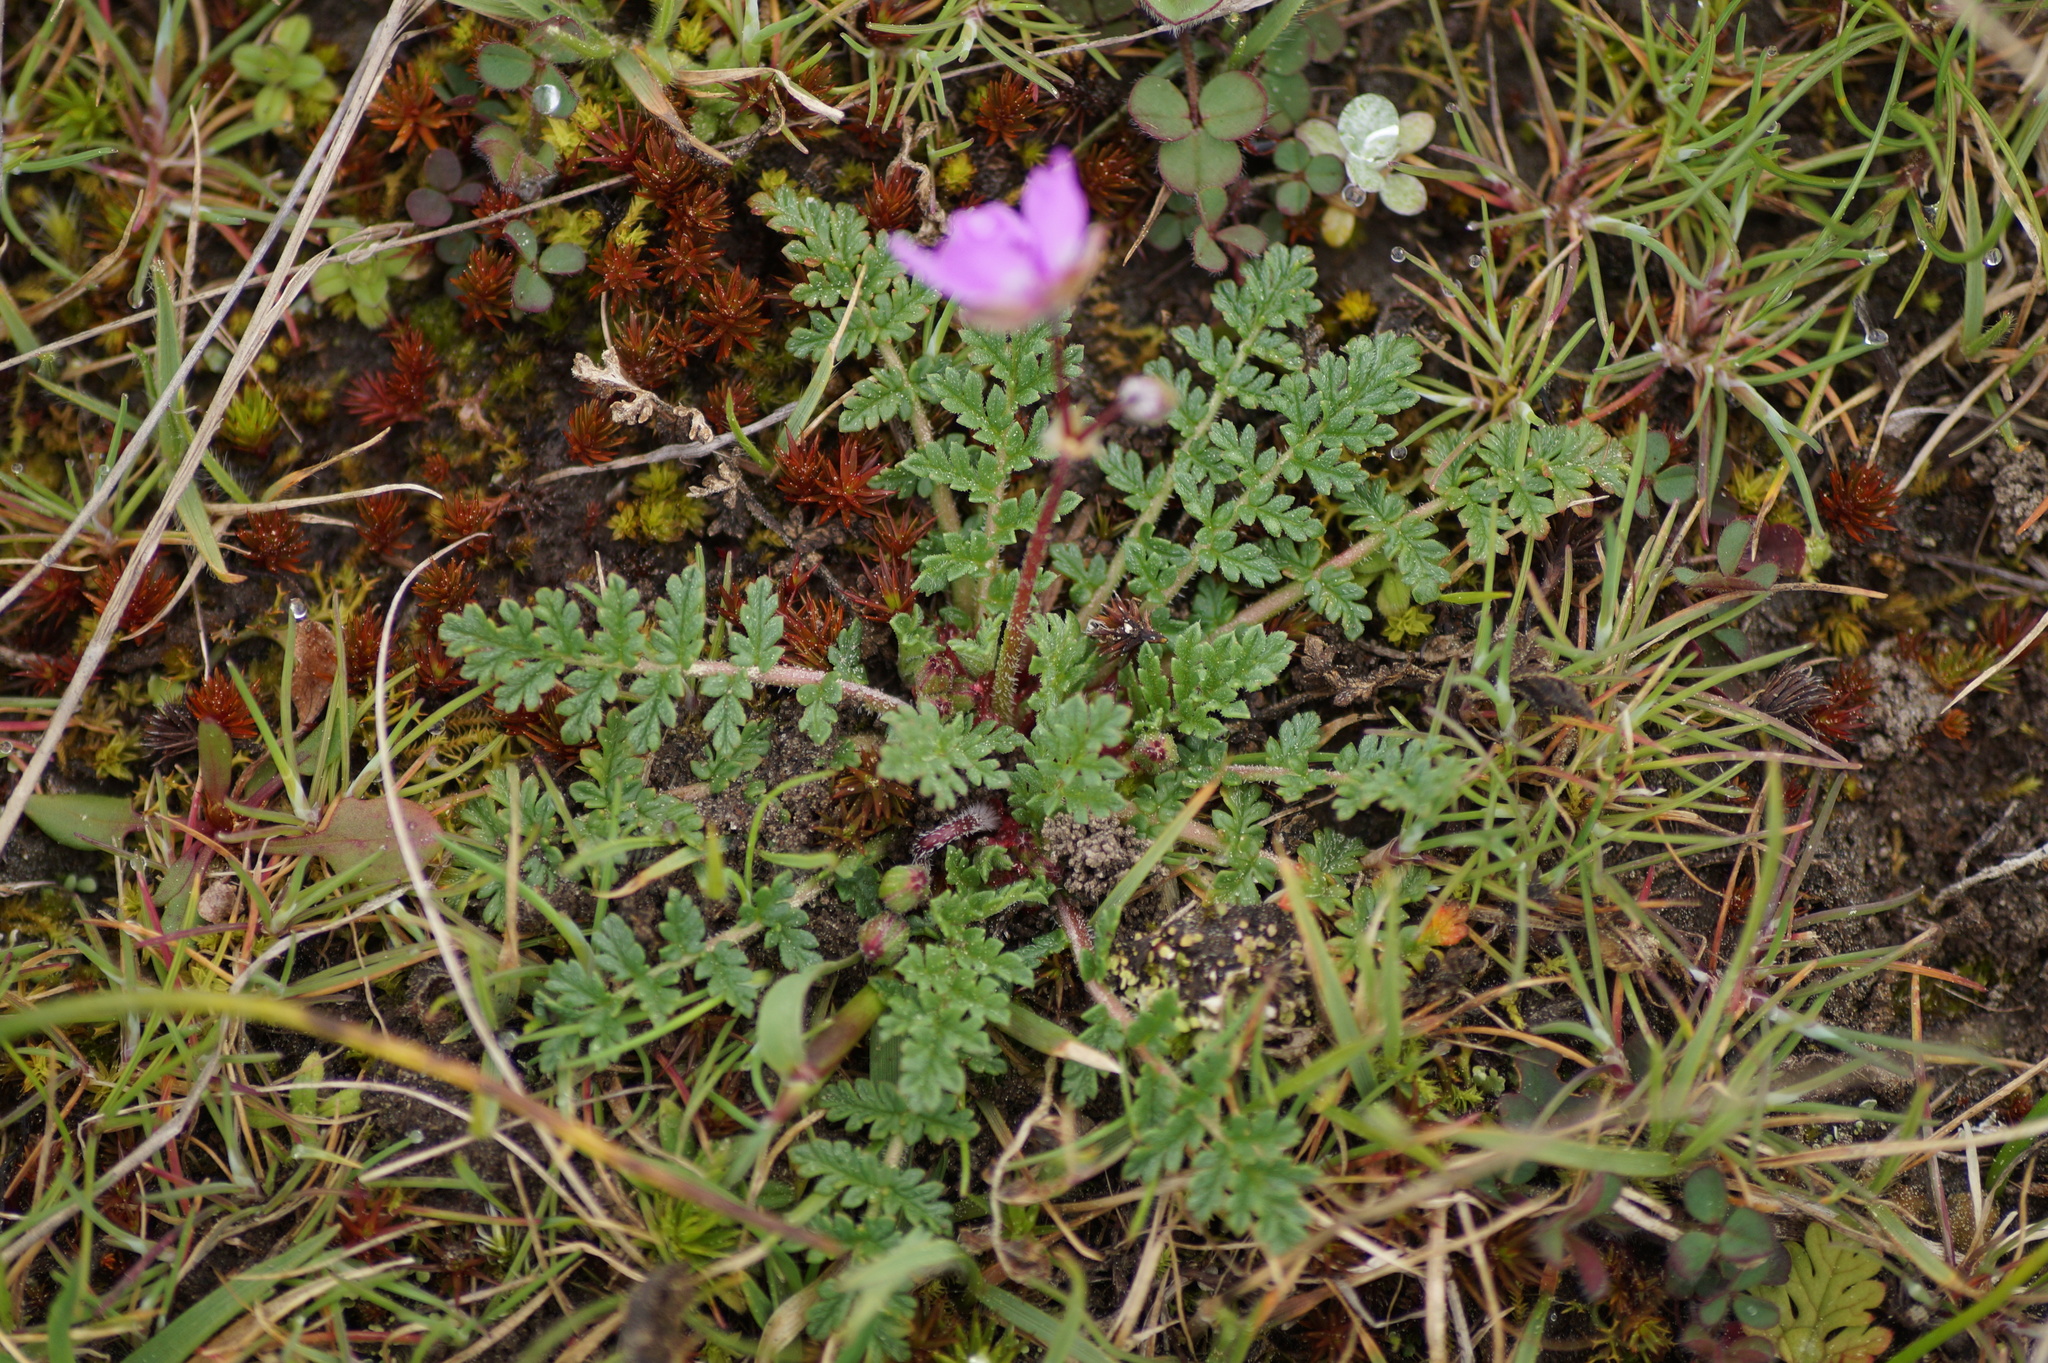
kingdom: Plantae
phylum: Tracheophyta
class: Magnoliopsida
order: Geraniales
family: Geraniaceae
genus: Erodium
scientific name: Erodium cicutarium
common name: Common stork's-bill
